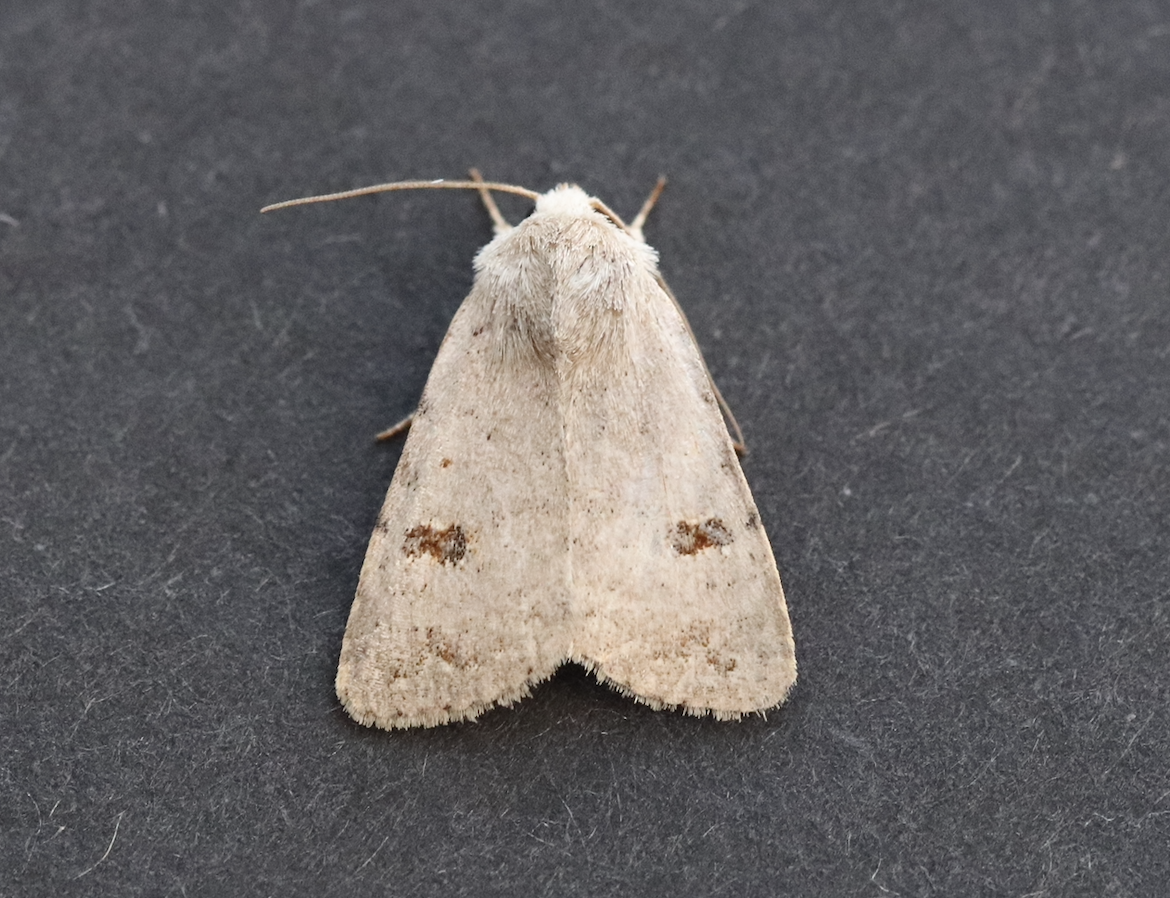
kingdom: Animalia
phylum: Arthropoda
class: Insecta
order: Lepidoptera
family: Noctuidae
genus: Caradrina
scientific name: Caradrina kadenii
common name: Clancy's rustic
